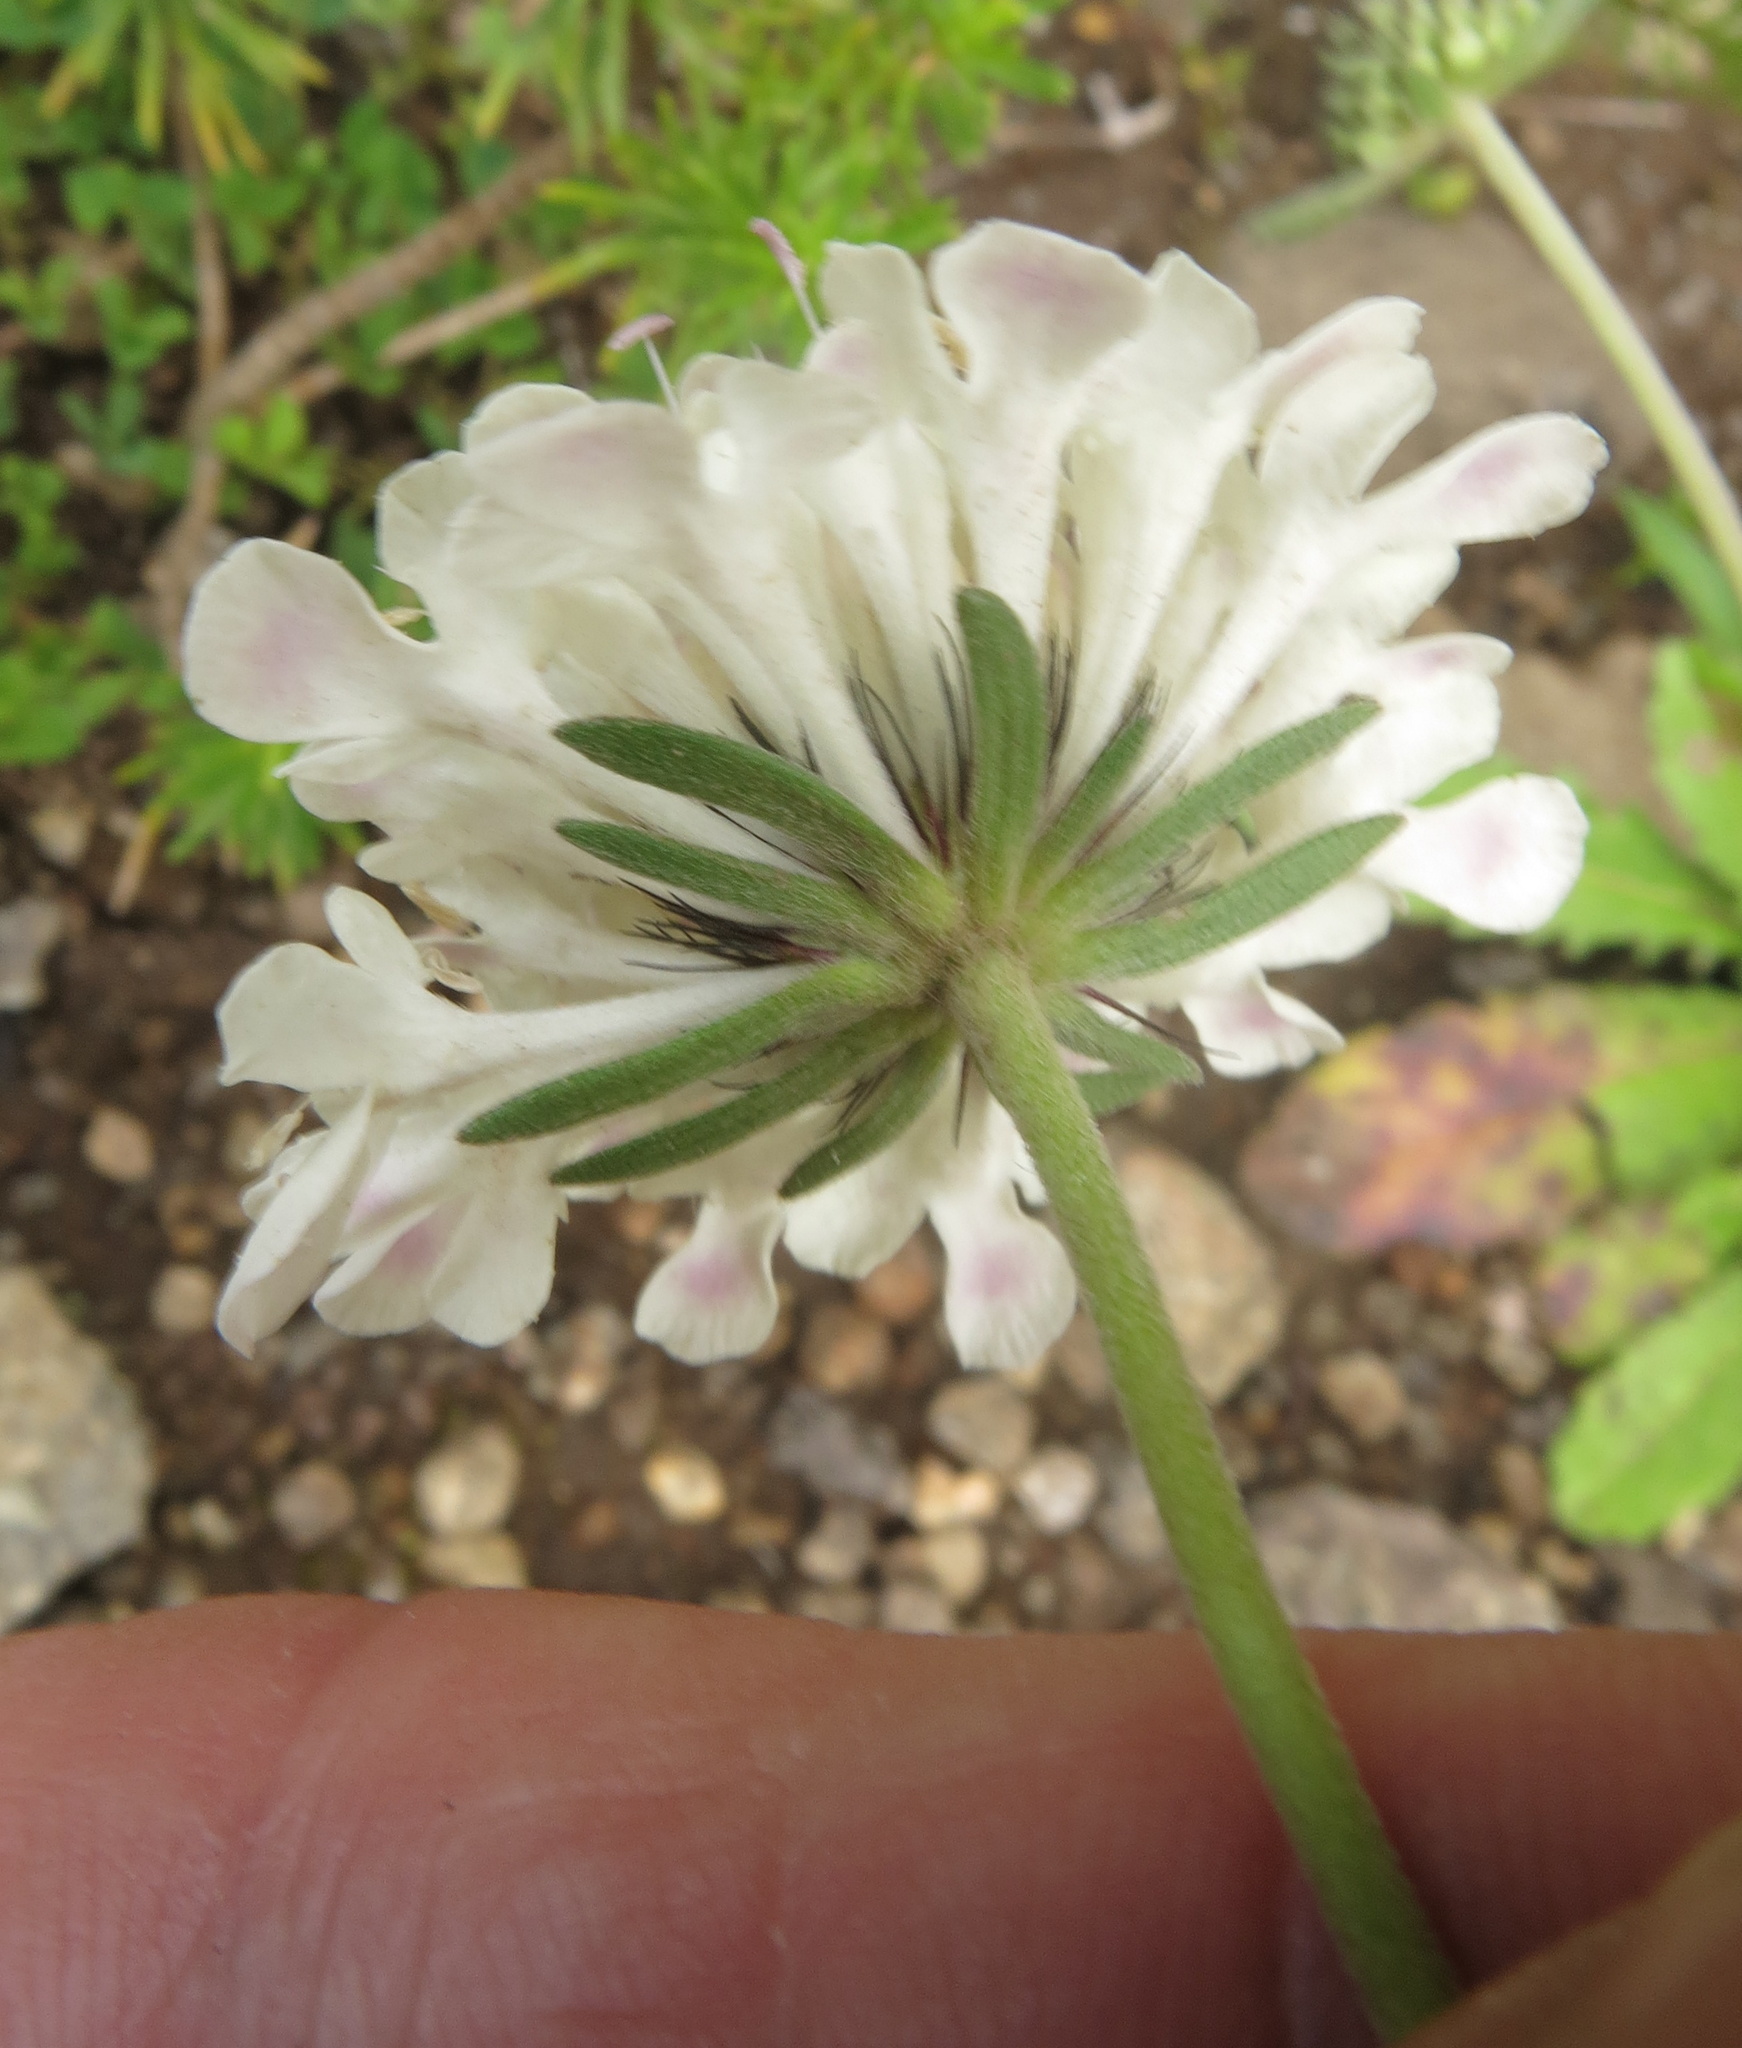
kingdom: Plantae
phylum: Tracheophyta
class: Magnoliopsida
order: Dipsacales
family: Caprifoliaceae
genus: Scabiosa
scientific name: Scabiosa columbaria
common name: Small scabious
